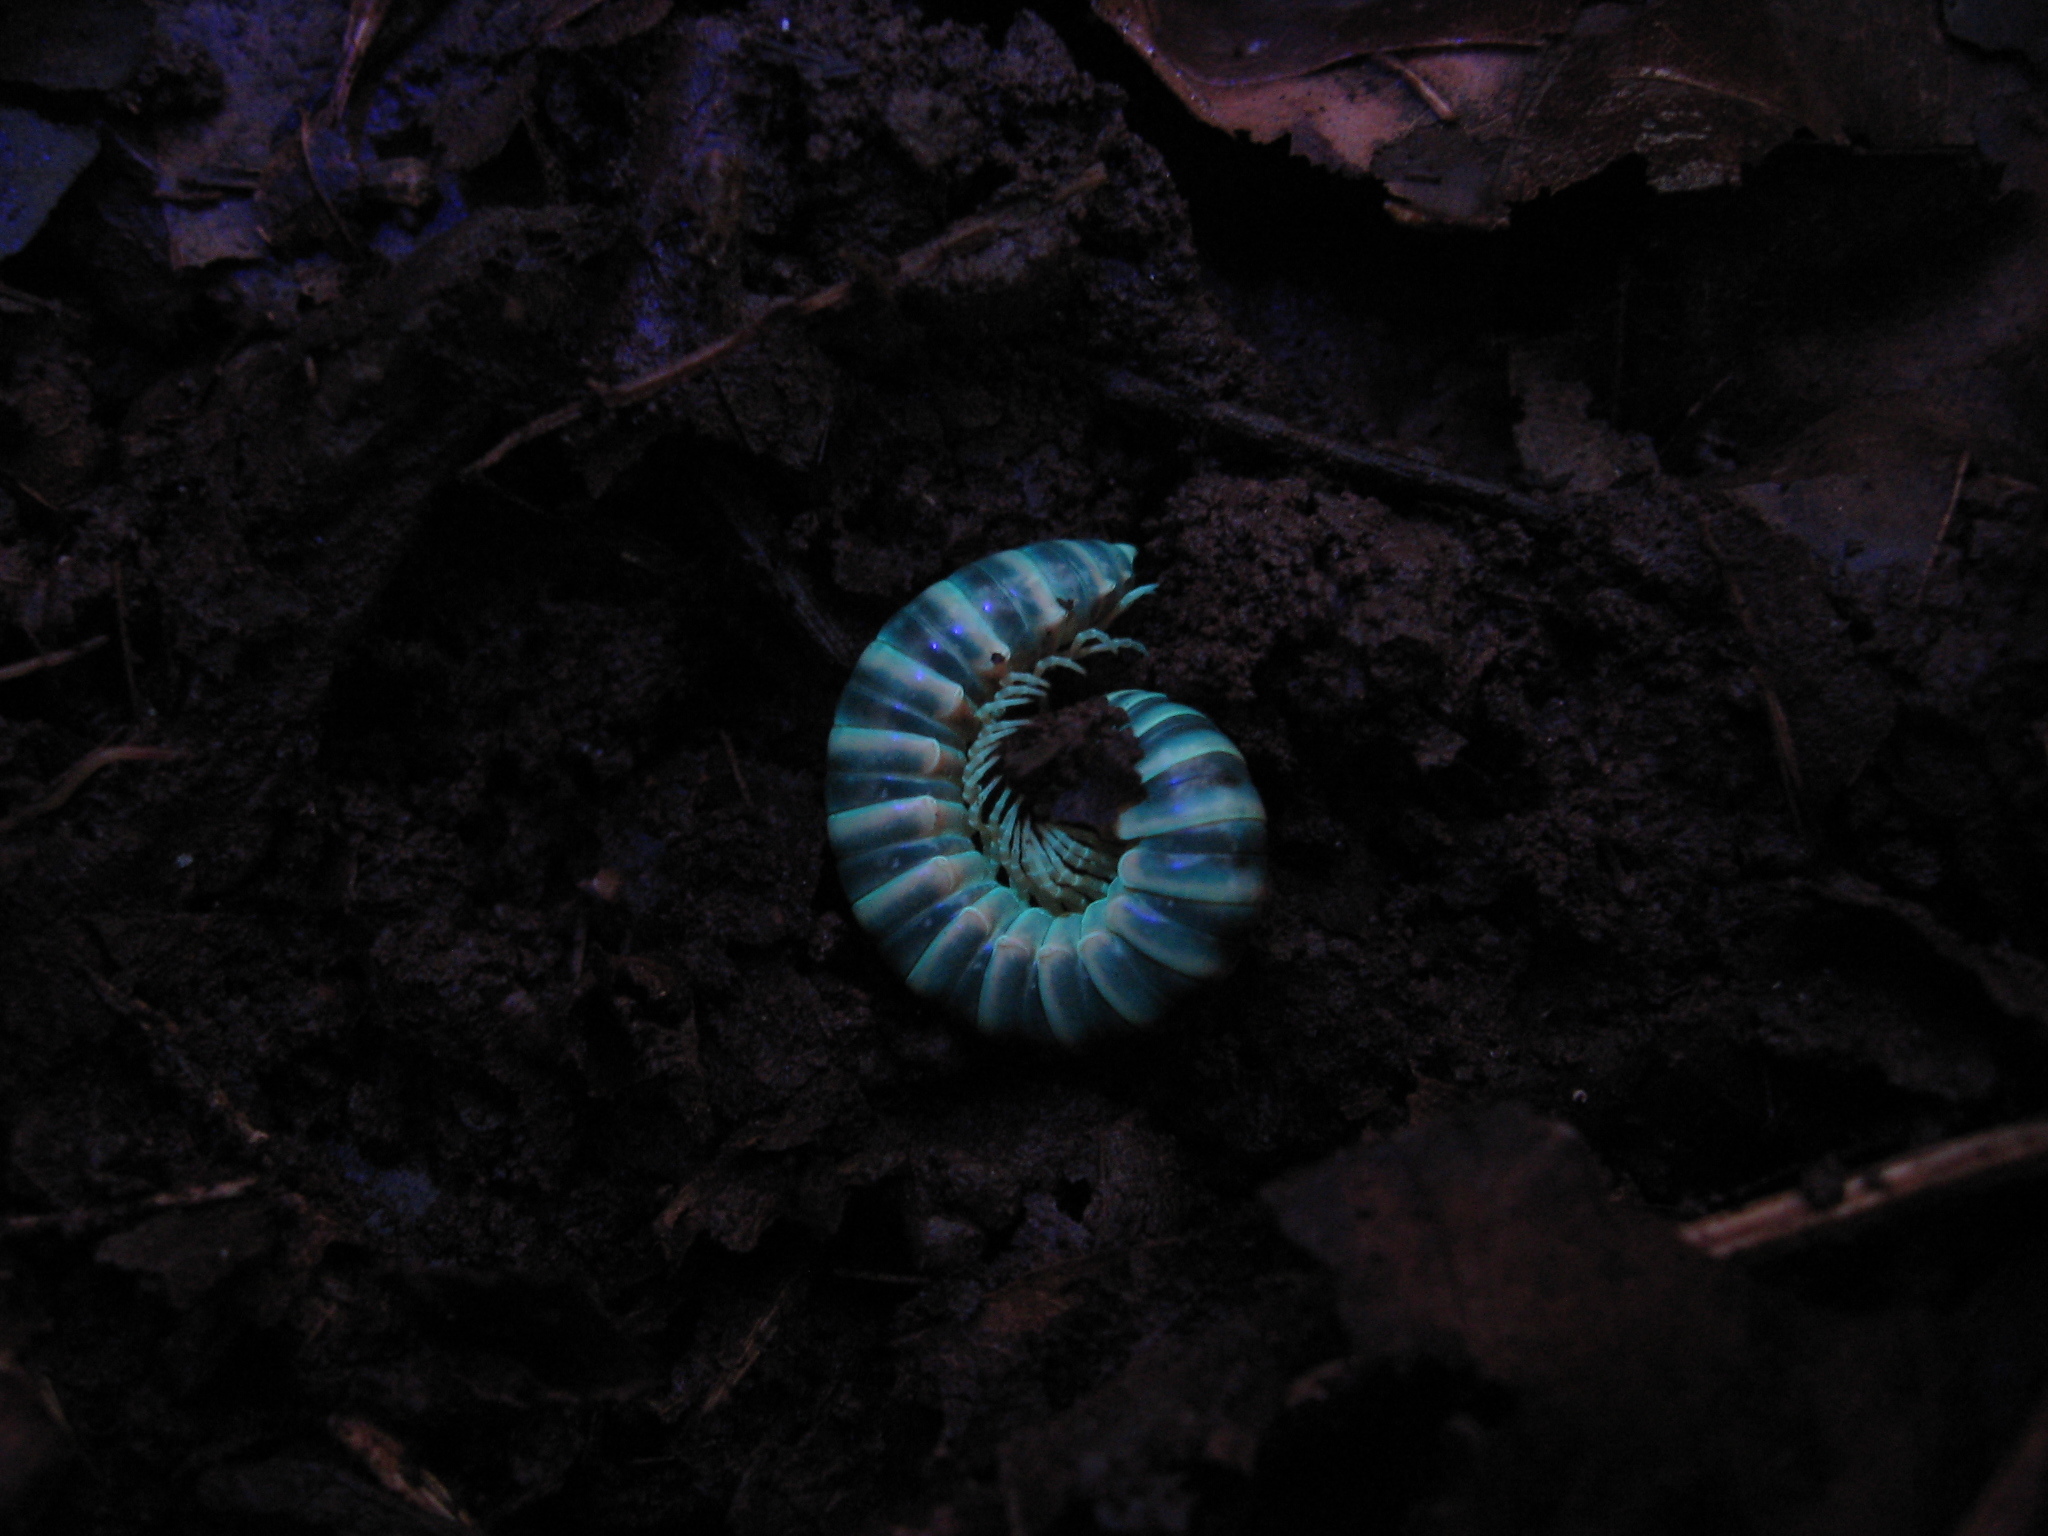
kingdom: Animalia
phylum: Arthropoda
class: Diplopoda
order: Polydesmida
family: Xystodesmidae
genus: Semionellus
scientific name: Semionellus placidus
